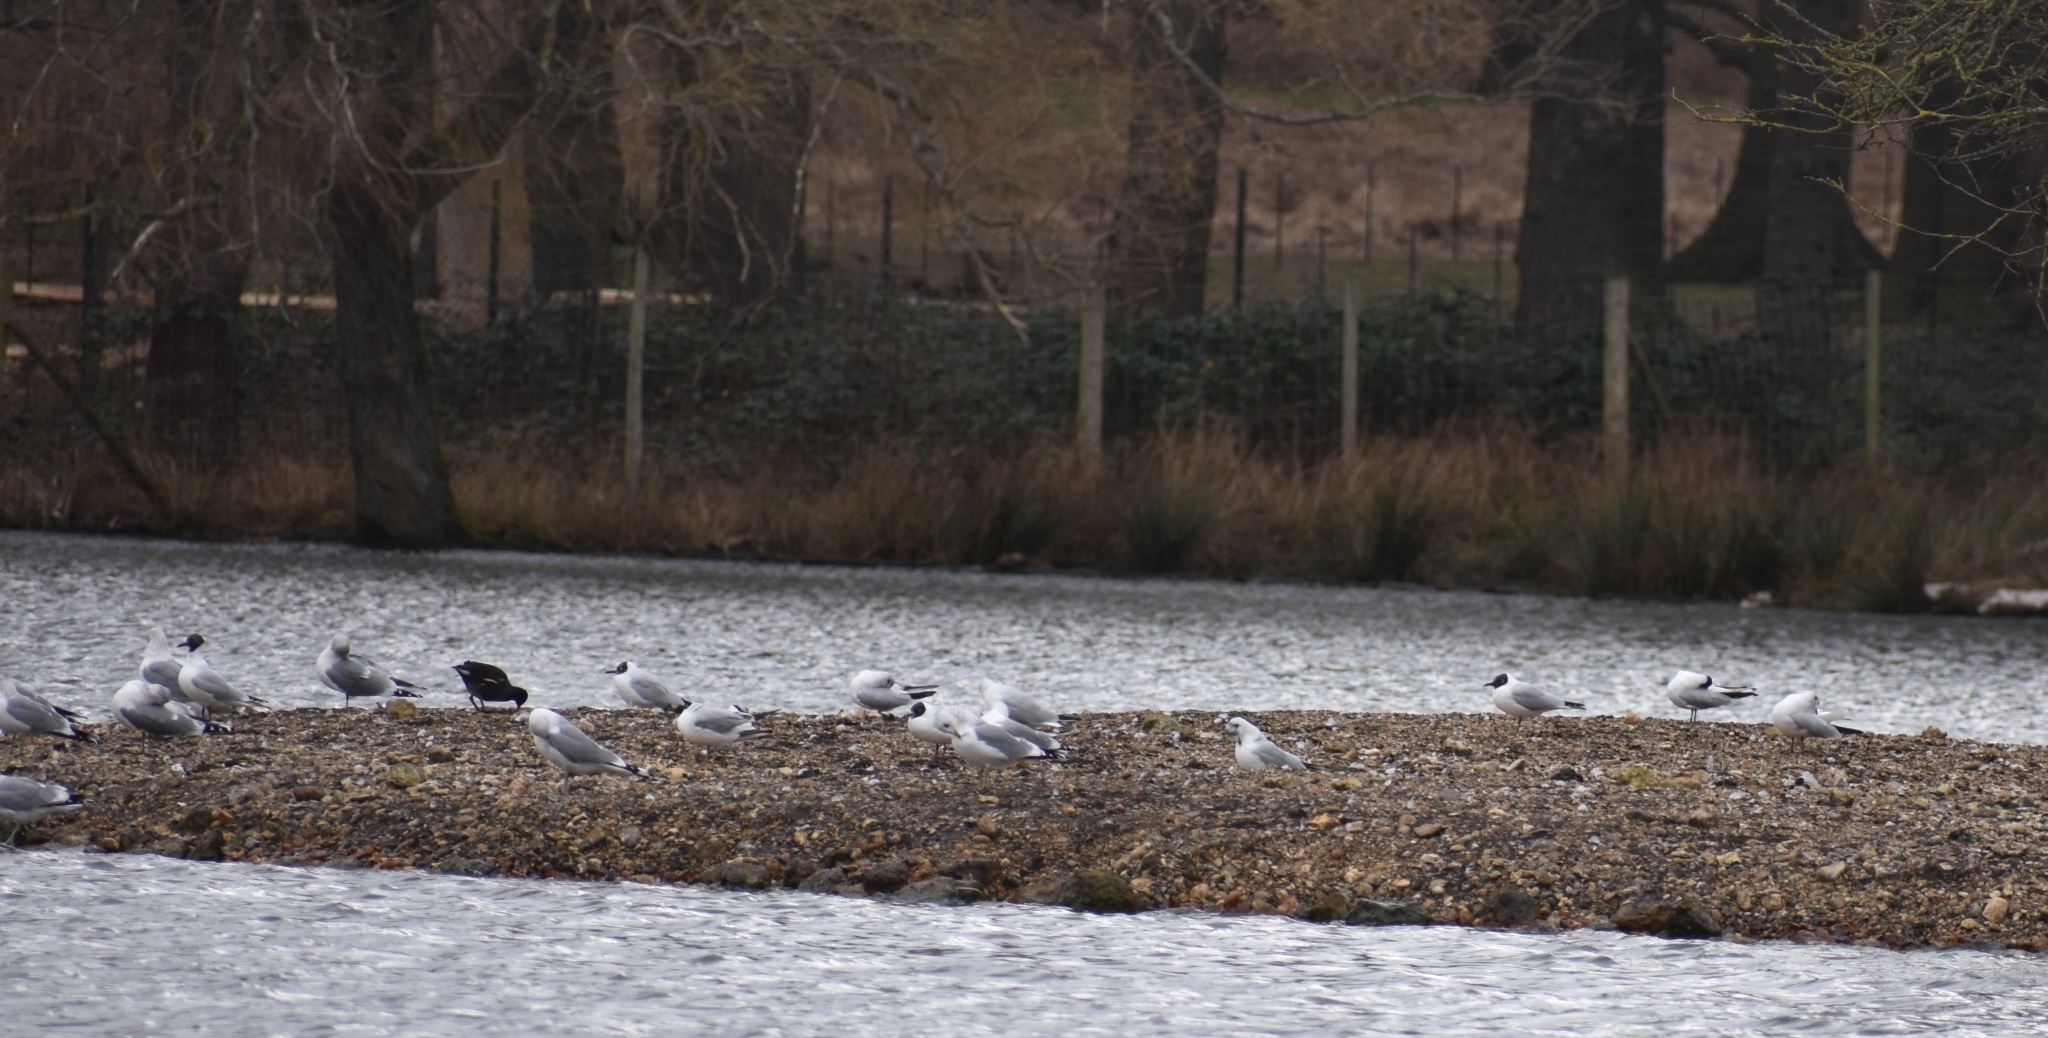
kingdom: Animalia
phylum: Chordata
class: Aves
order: Charadriiformes
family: Laridae
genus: Chroicocephalus
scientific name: Chroicocephalus ridibundus
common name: Black-headed gull
